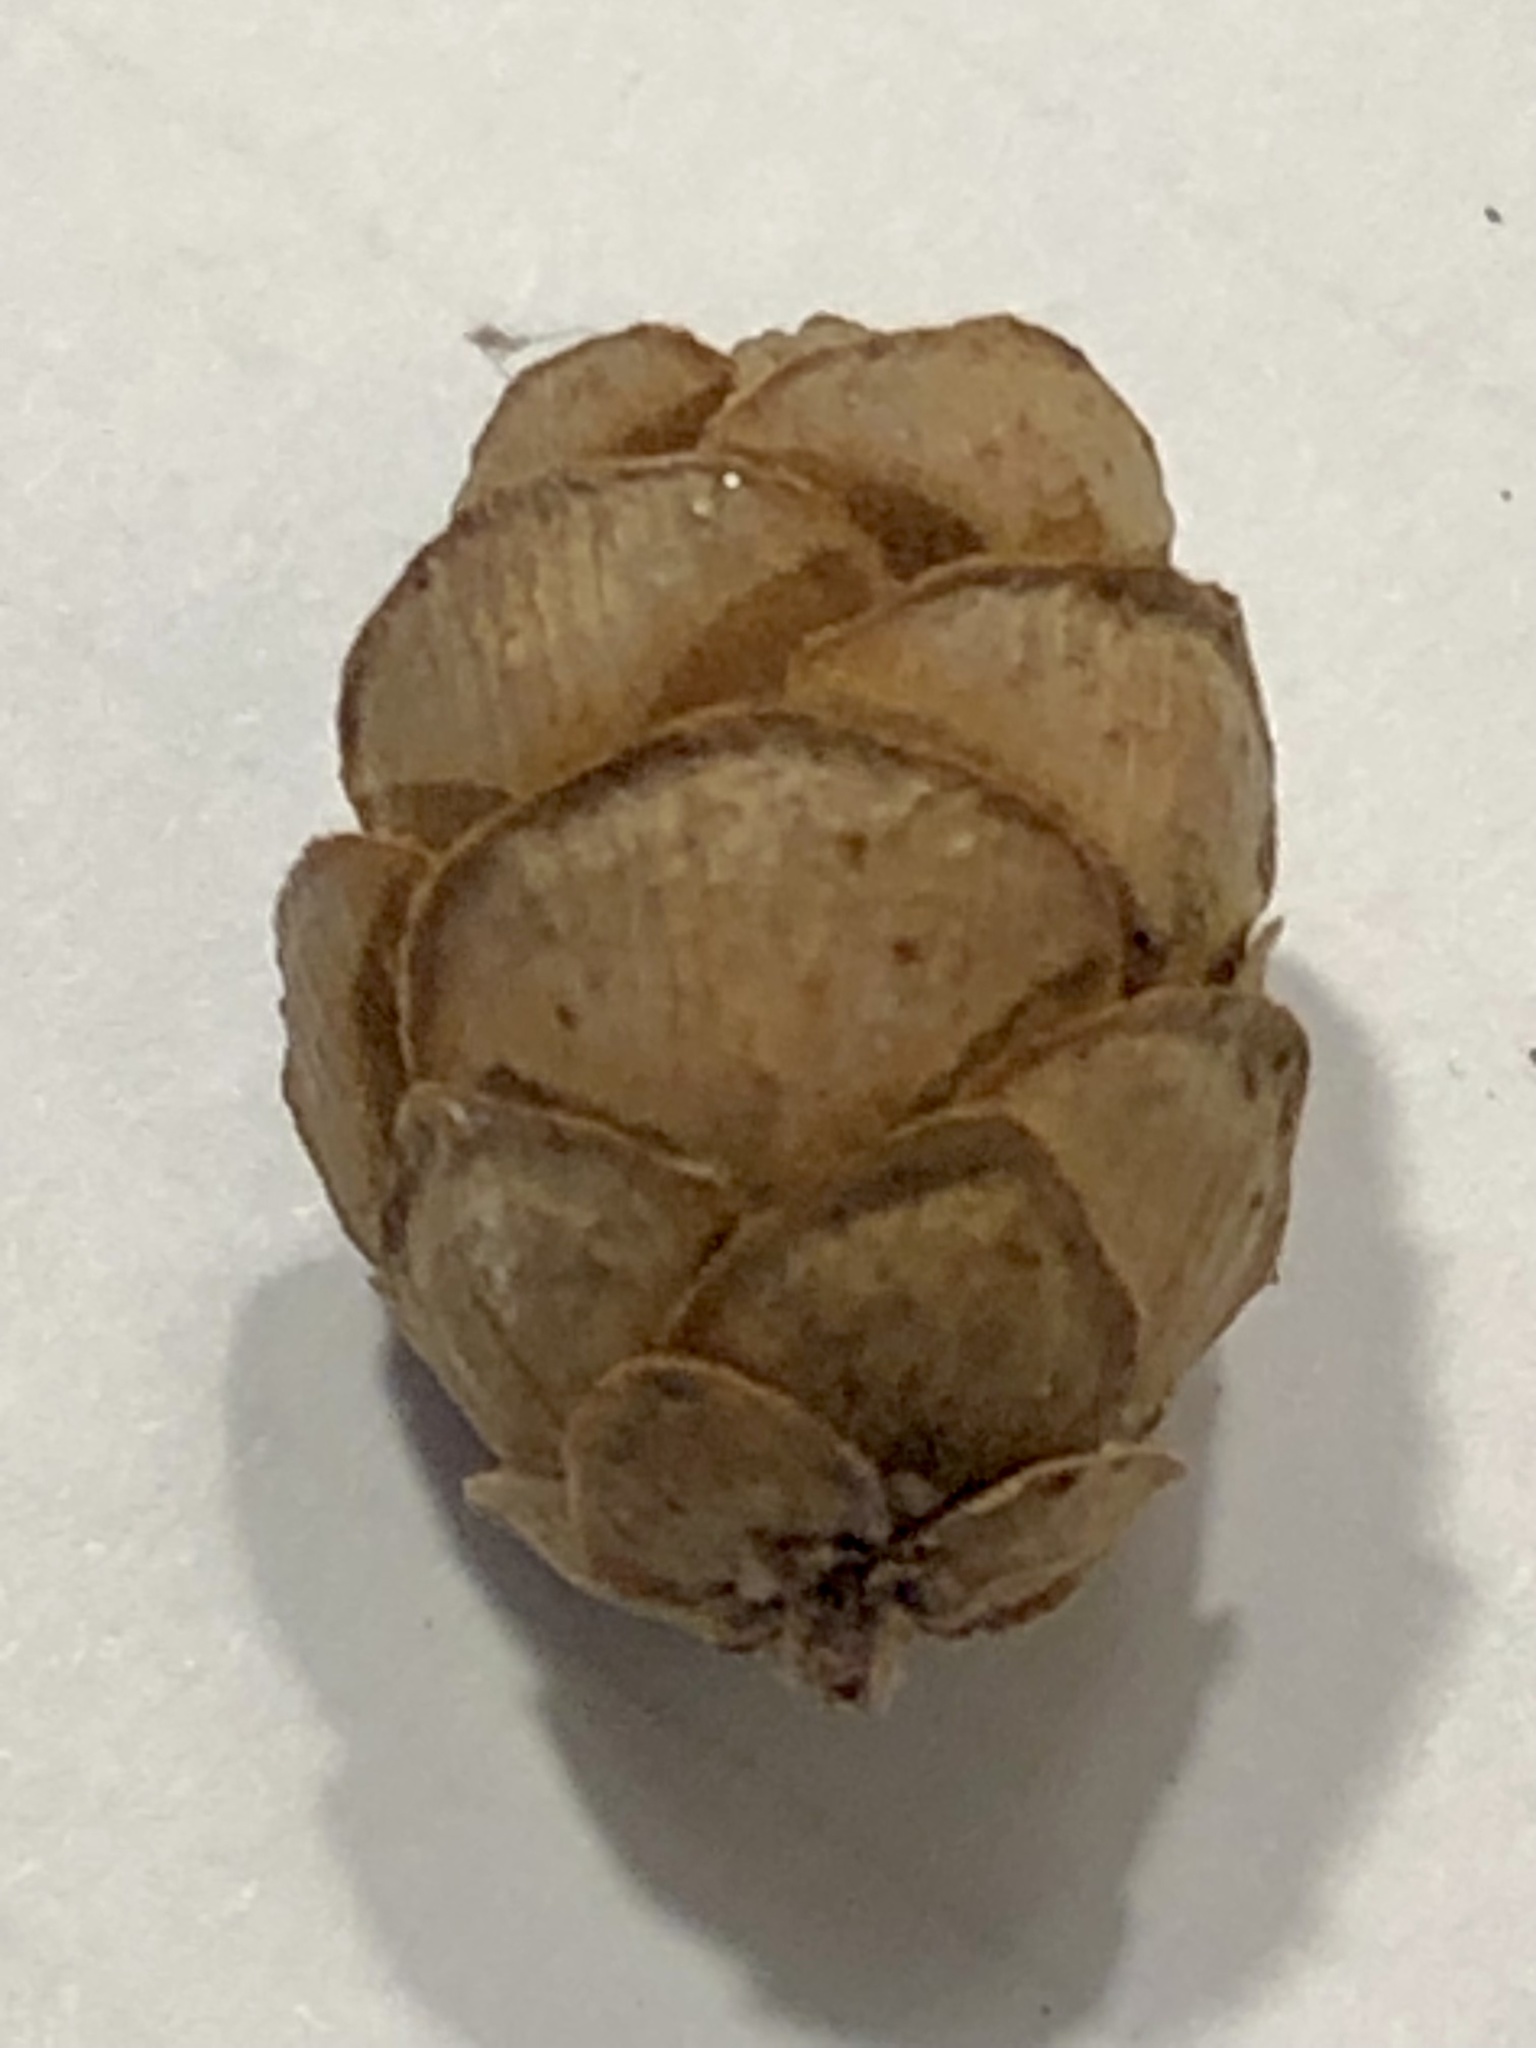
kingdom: Plantae
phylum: Tracheophyta
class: Pinopsida
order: Pinales
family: Pinaceae
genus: Tsuga
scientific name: Tsuga canadensis
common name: Eastern hemlock
